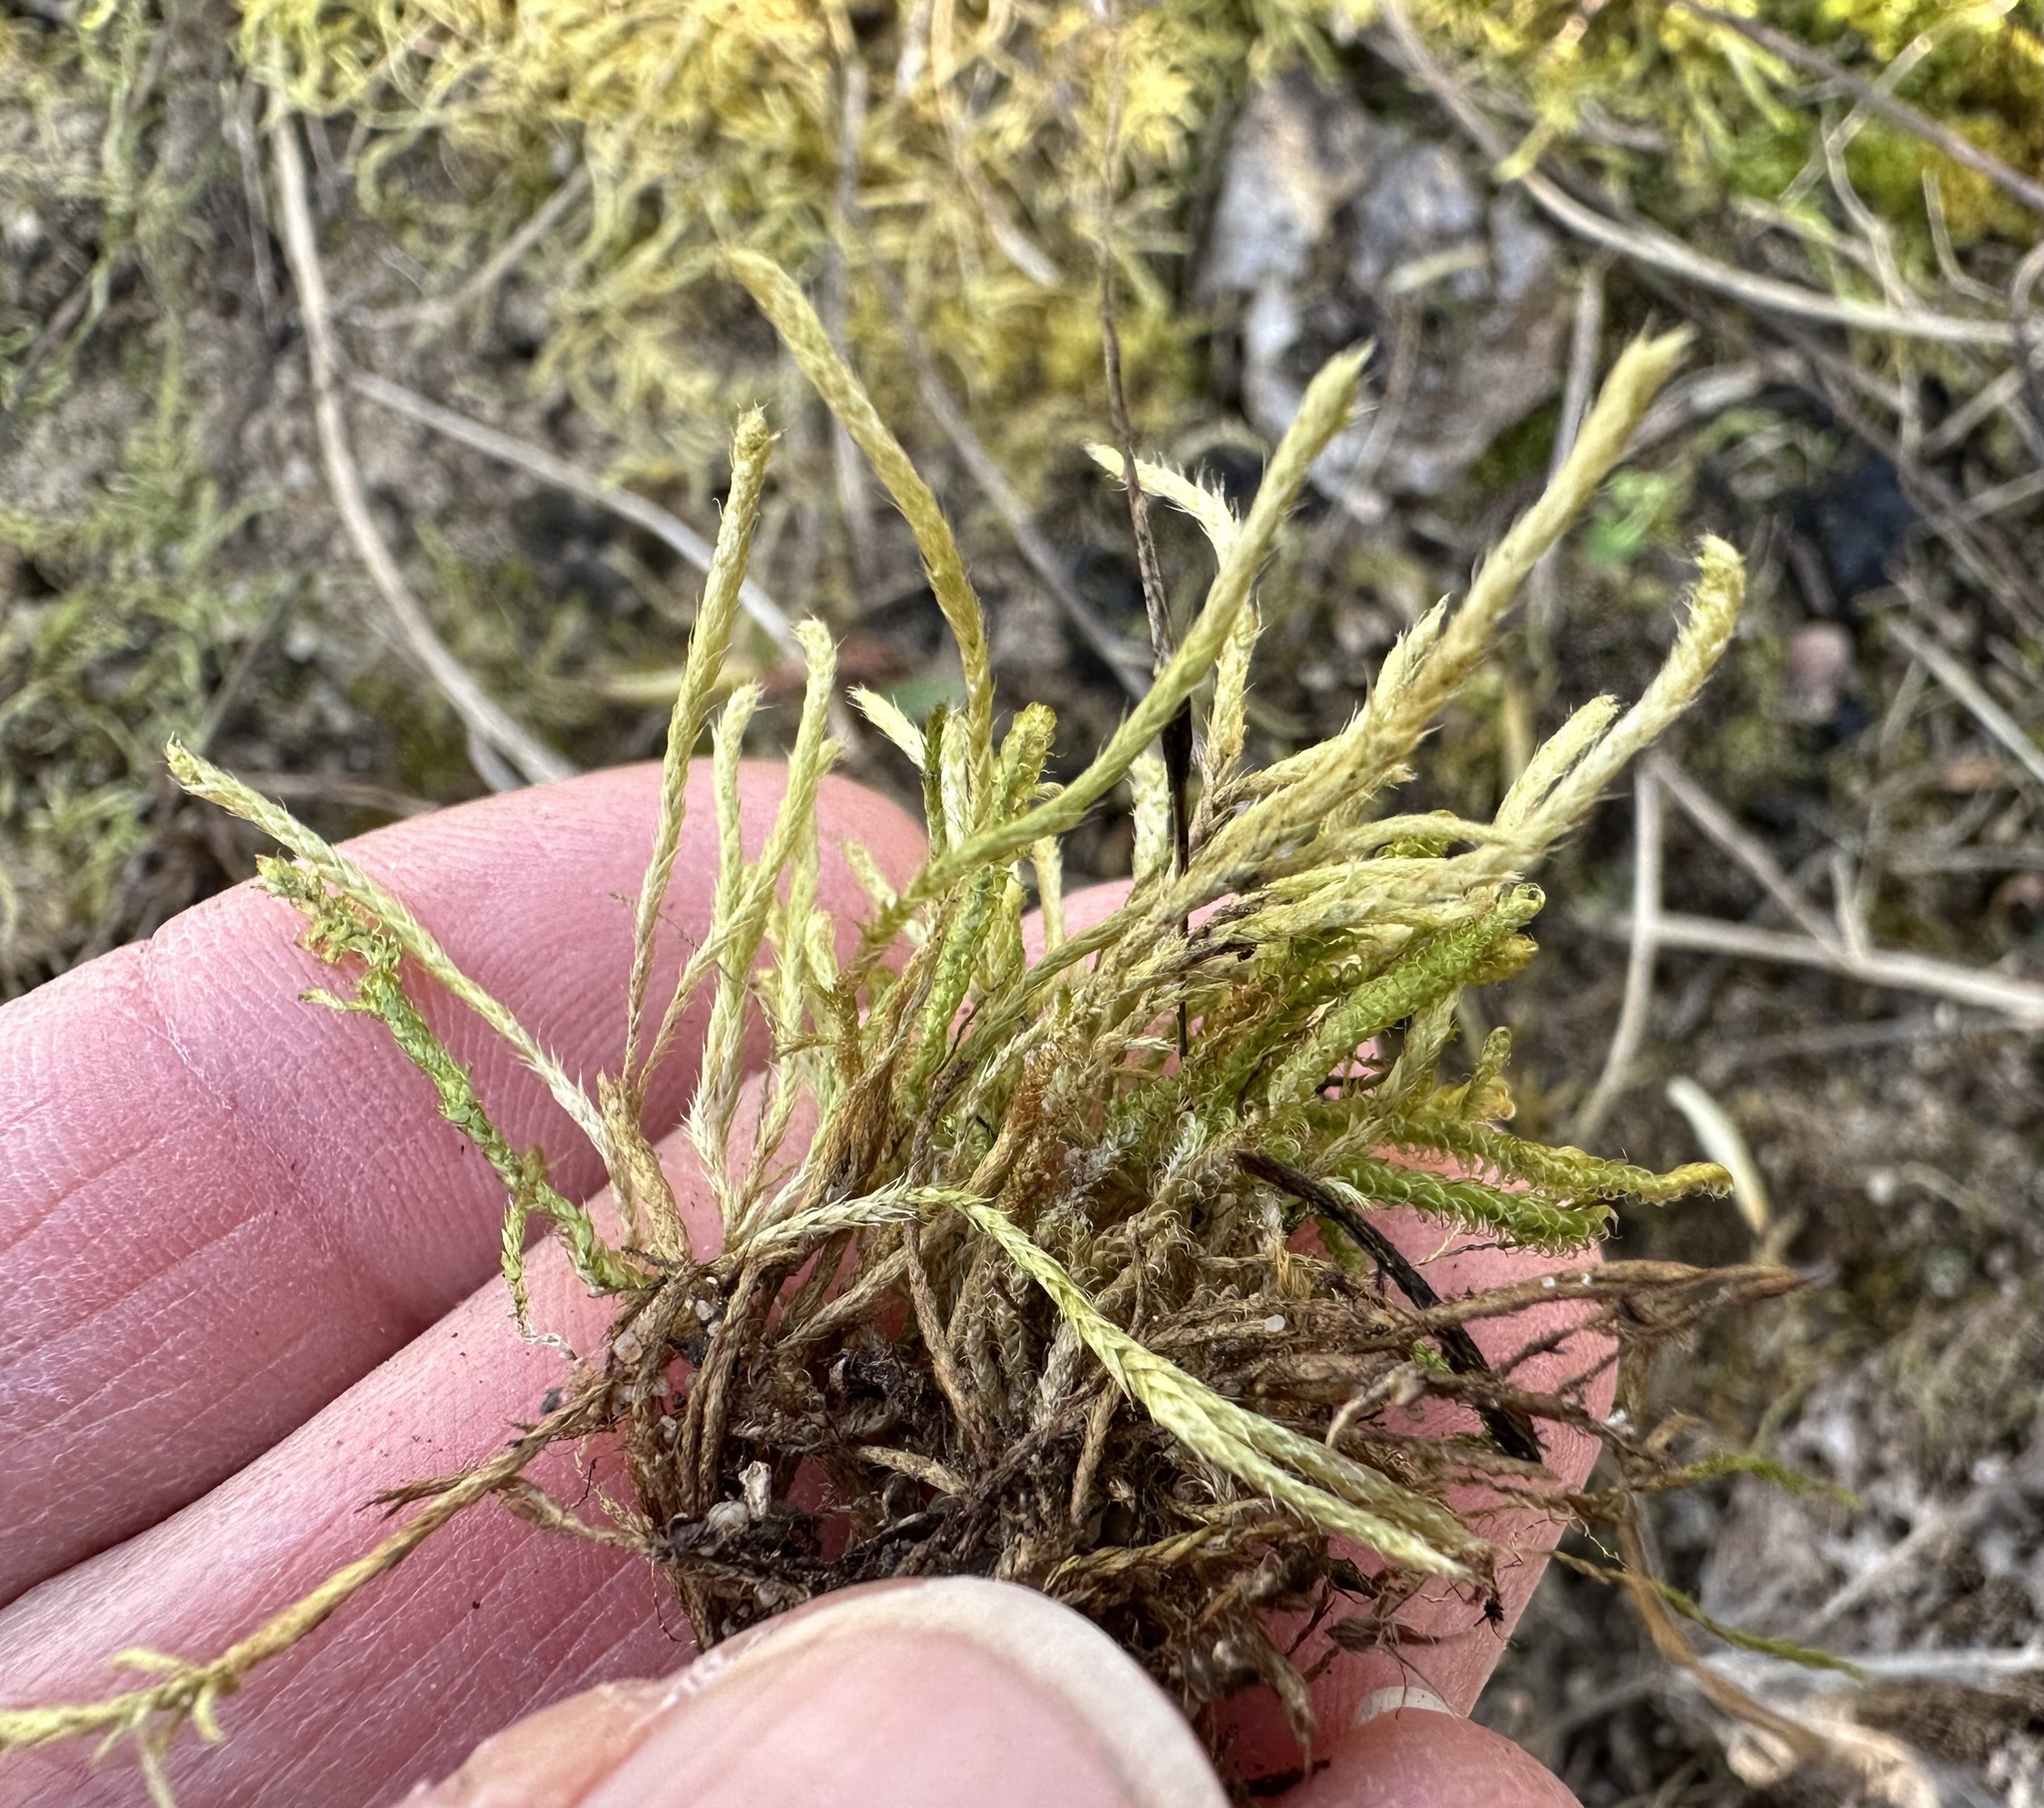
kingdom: Plantae
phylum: Bryophyta
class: Bryopsida
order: Hypnales
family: Brachytheciaceae
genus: Brachythecium
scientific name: Brachythecium albicans
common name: Whitish ragged moss
